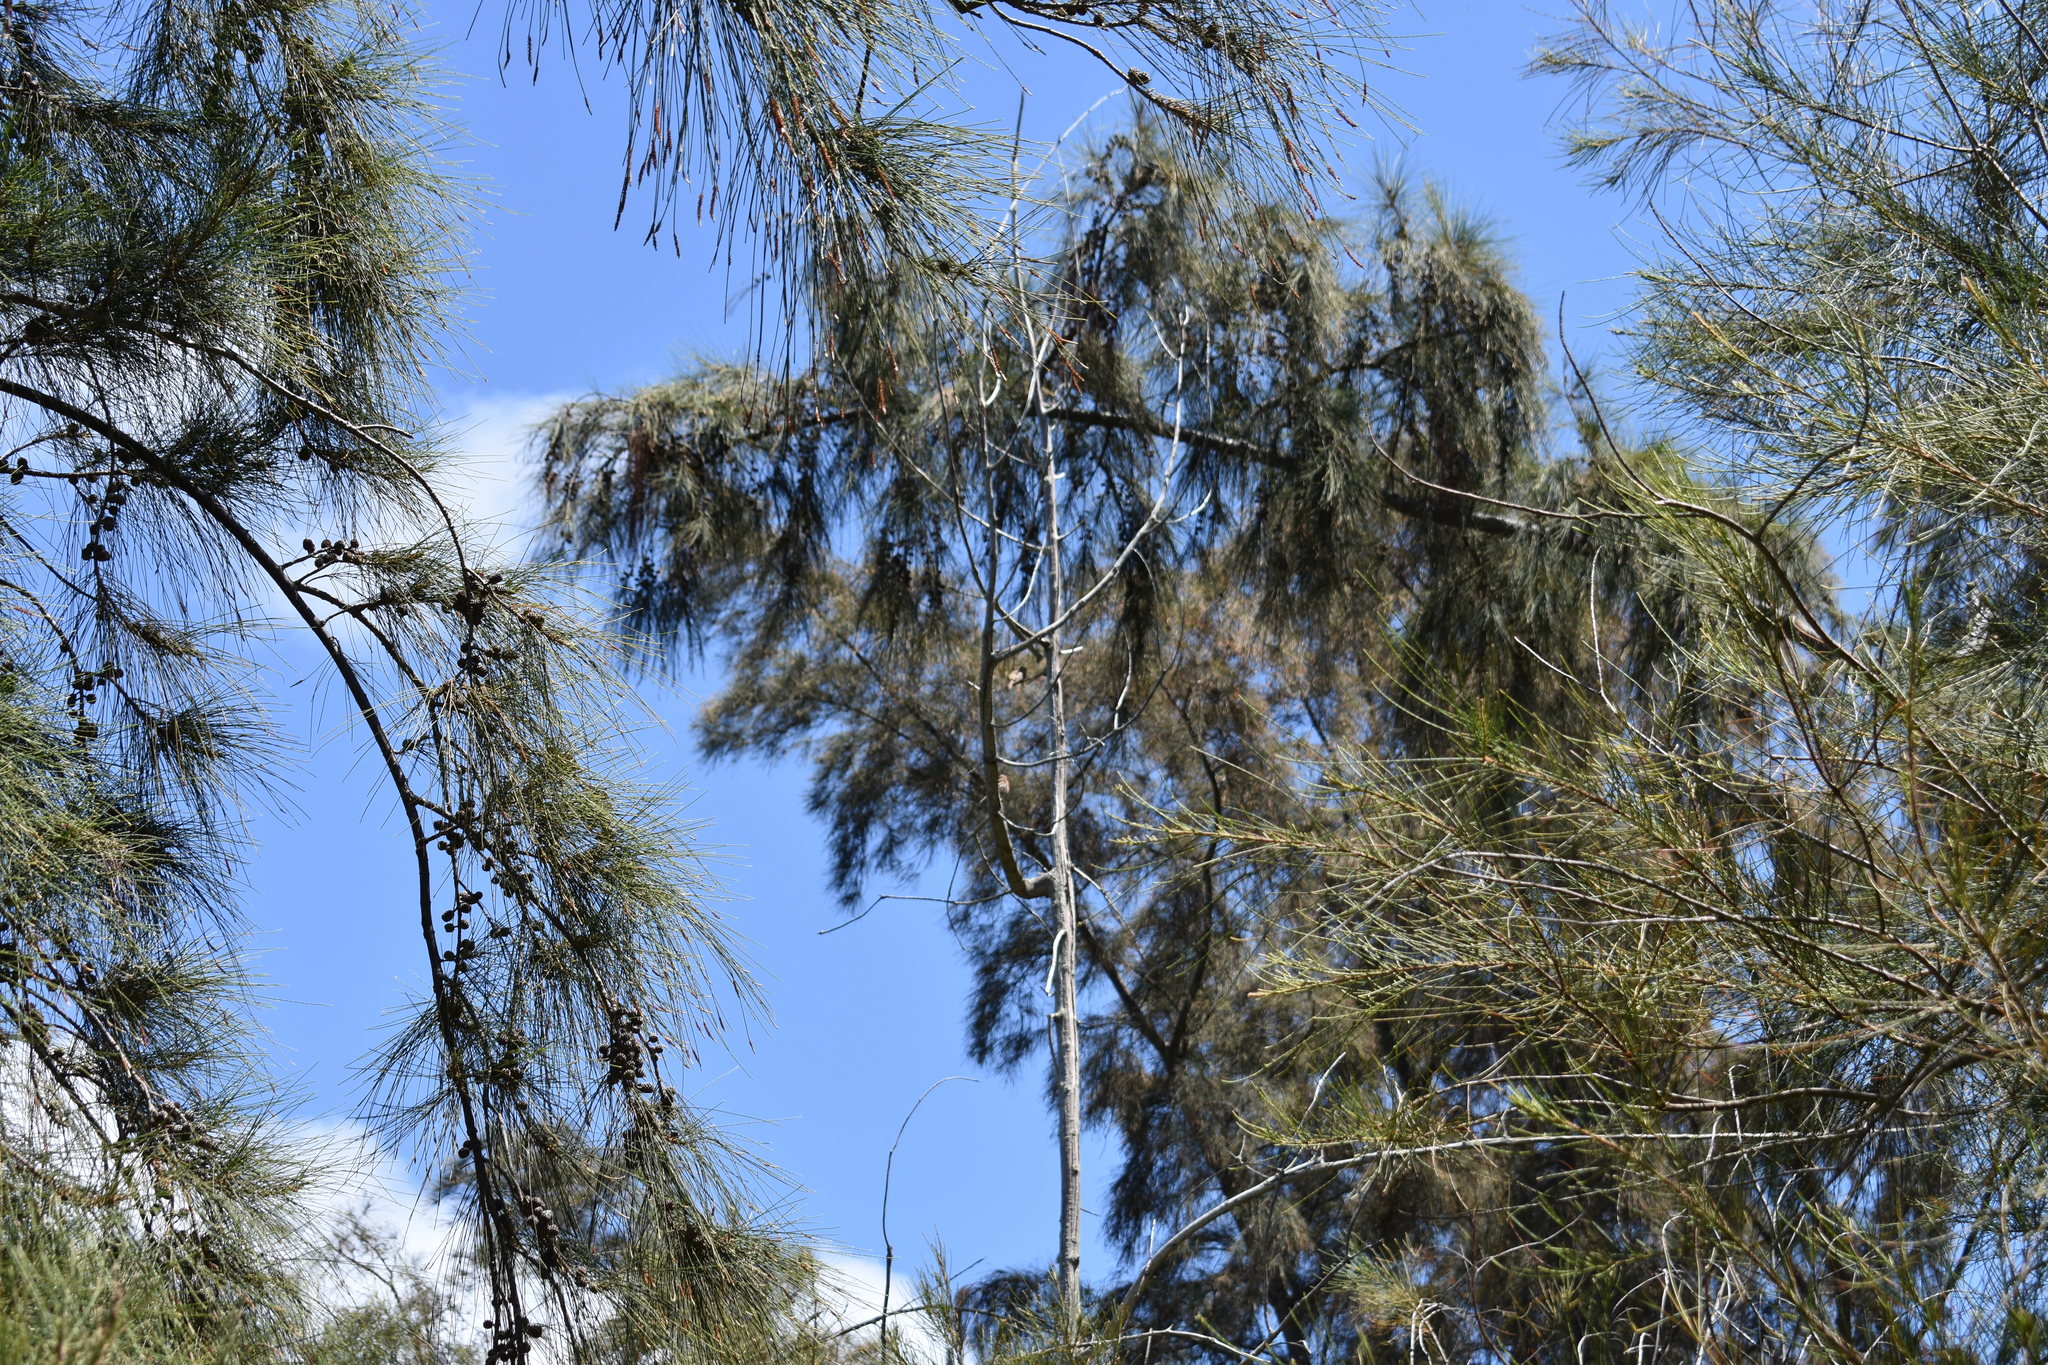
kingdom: Plantae
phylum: Tracheophyta
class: Magnoliopsida
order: Fagales
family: Casuarinaceae
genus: Casuarina
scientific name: Casuarina equisetifolia
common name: Beach sheoak
